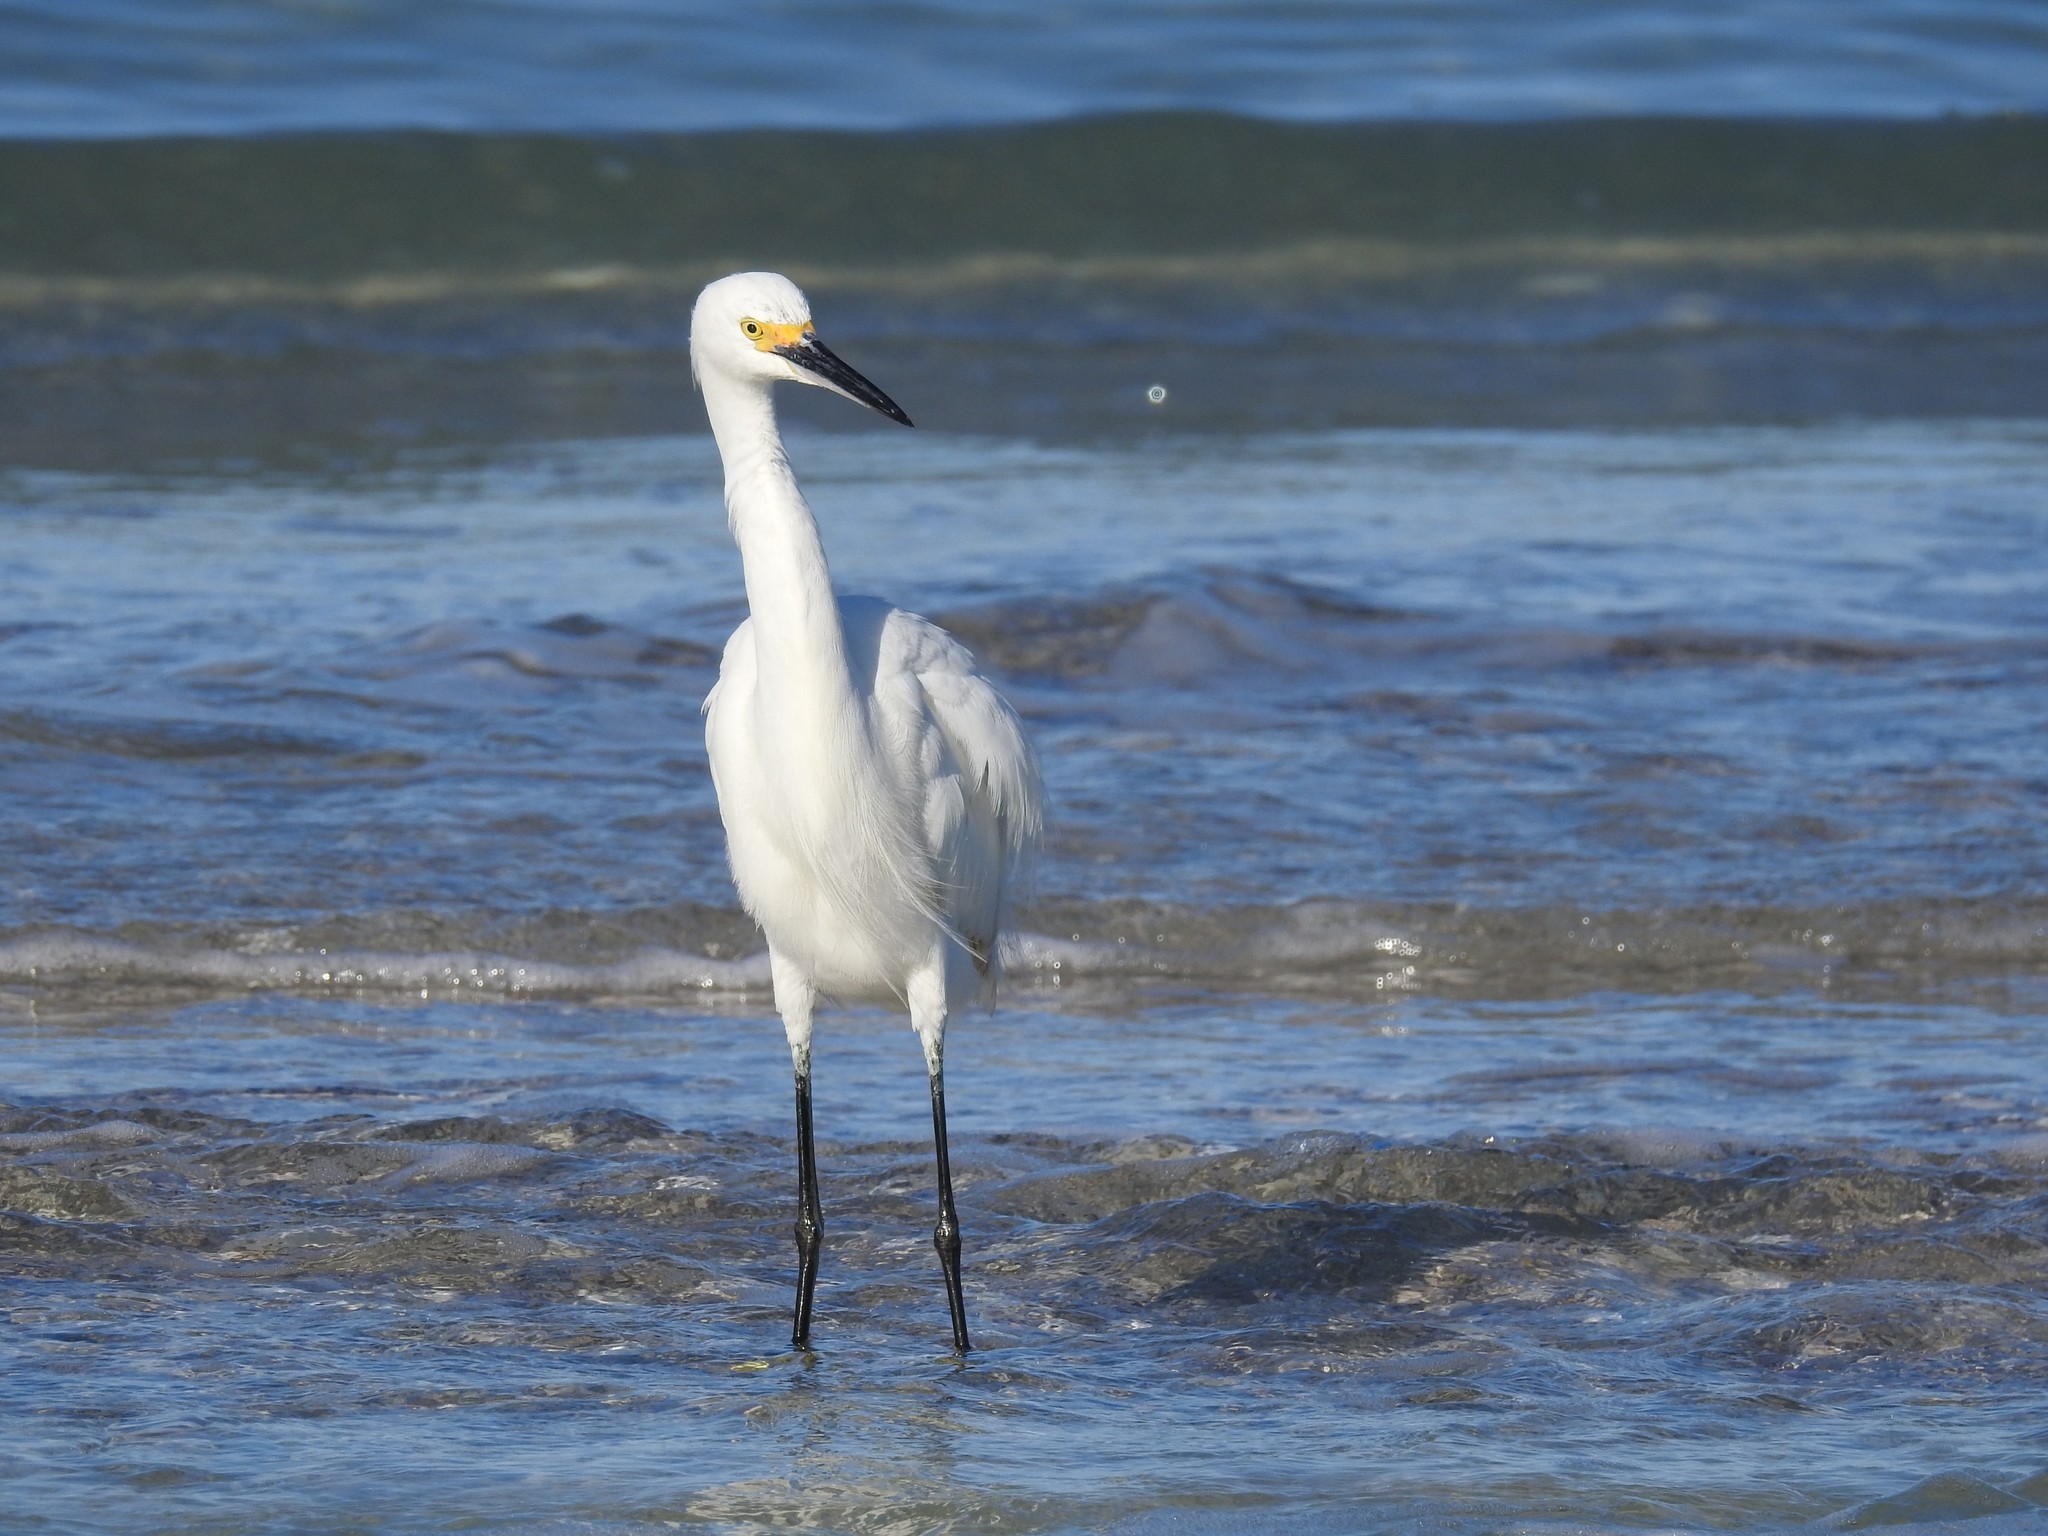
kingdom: Animalia
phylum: Chordata
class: Aves
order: Pelecaniformes
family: Ardeidae
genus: Egretta
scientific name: Egretta thula
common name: Snowy egret
